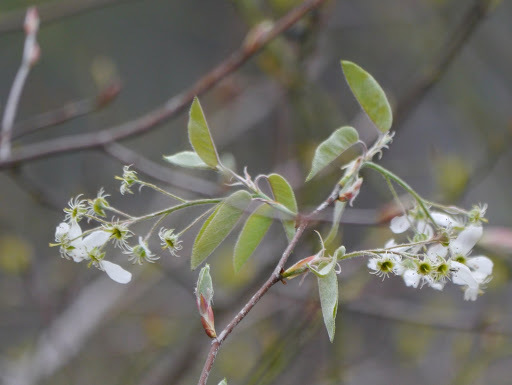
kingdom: Plantae
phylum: Tracheophyta
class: Magnoliopsida
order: Rosales
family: Rosaceae
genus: Amelanchier
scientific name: Amelanchier arborea
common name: Downy serviceberry
